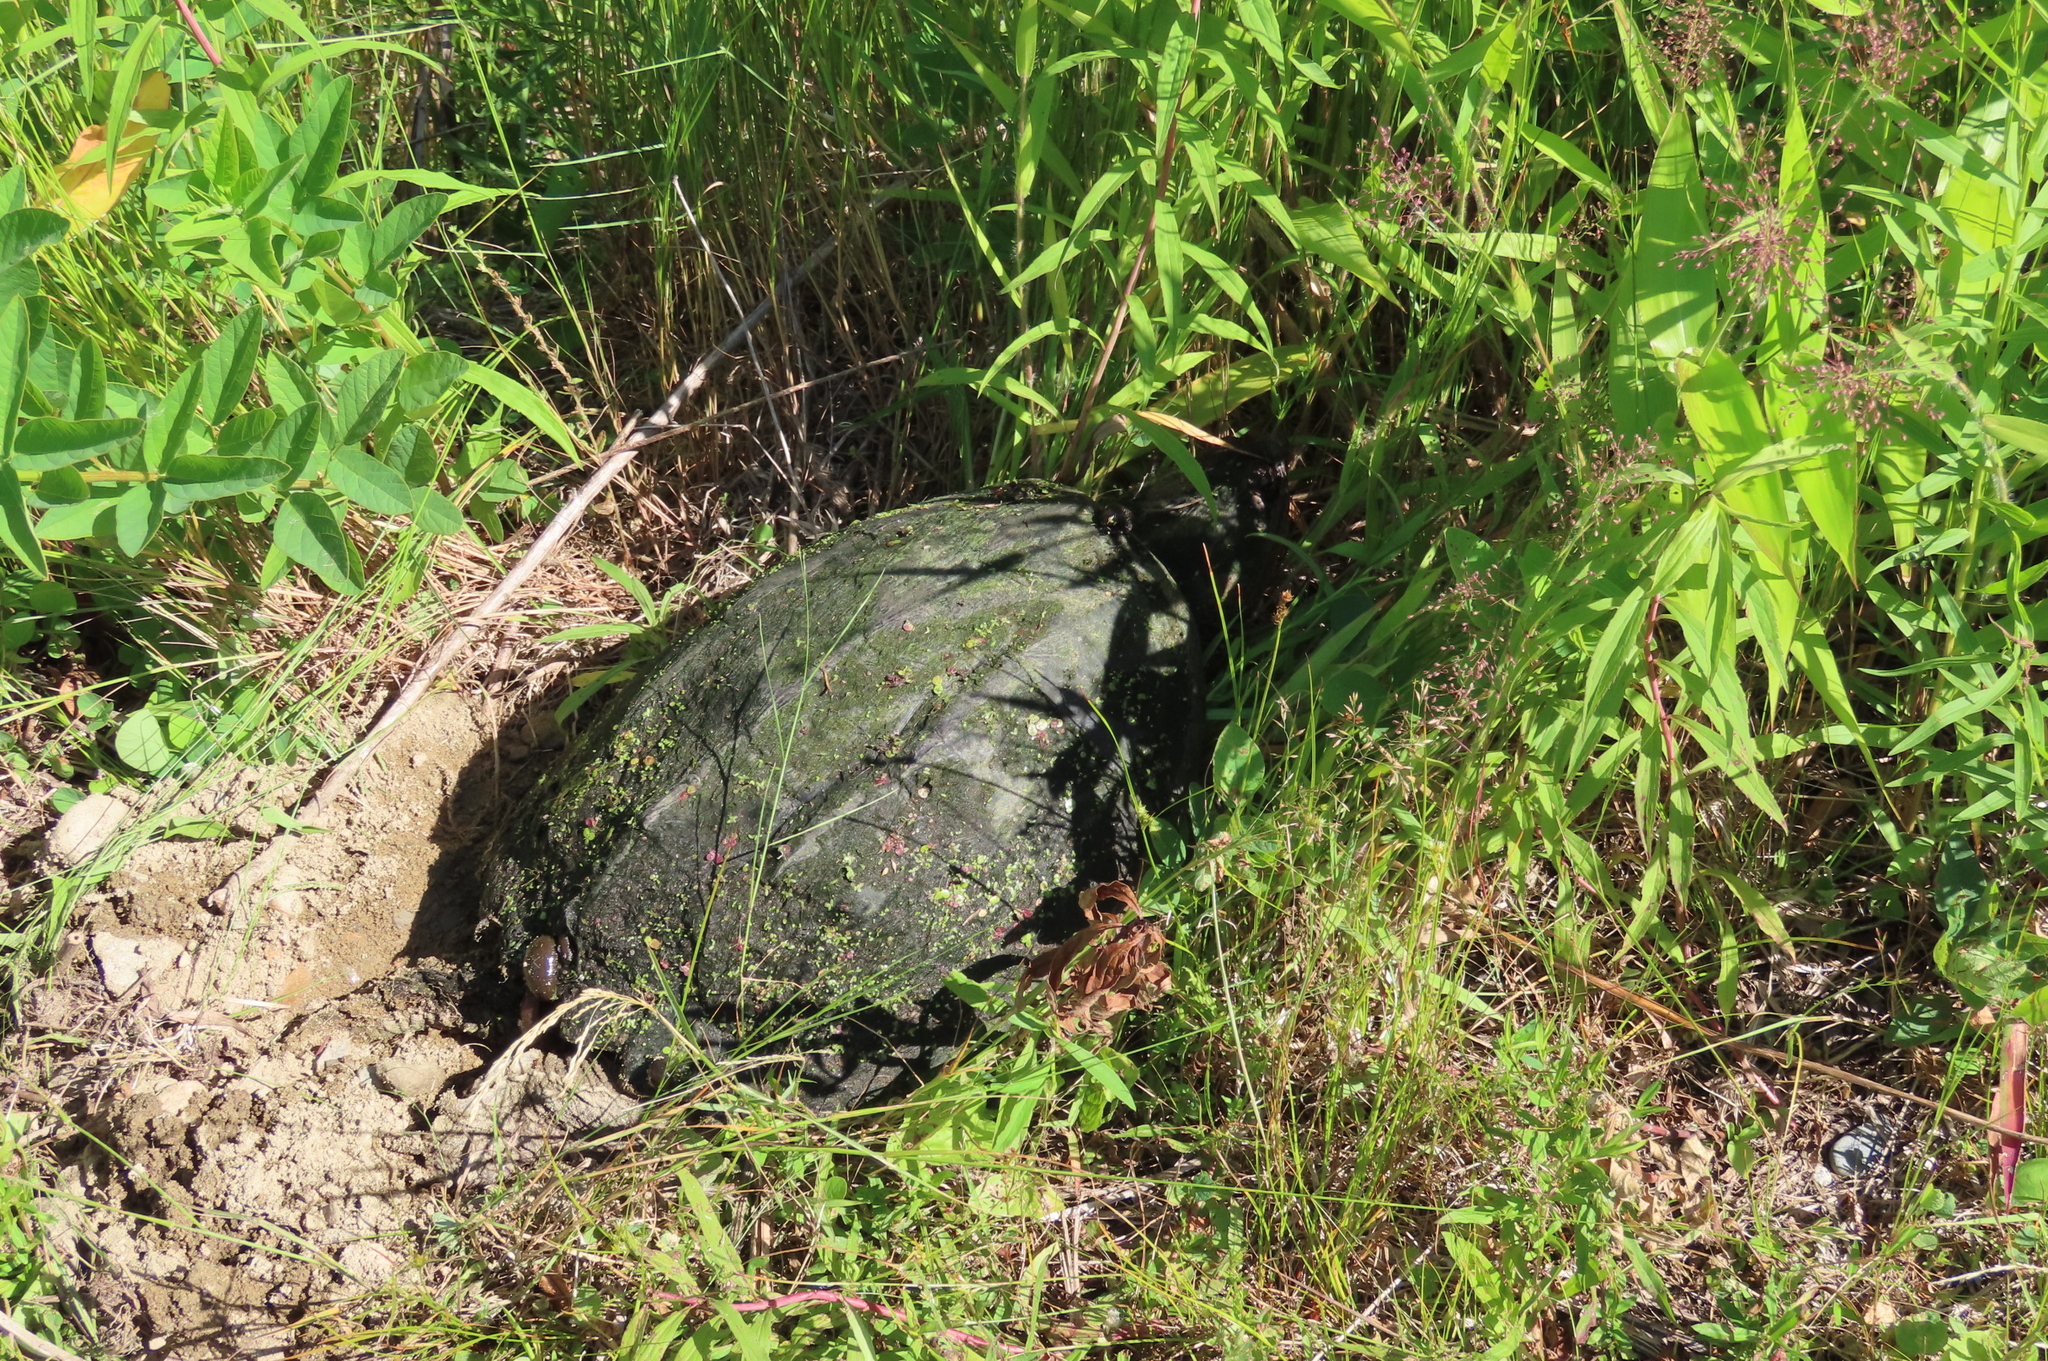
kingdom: Animalia
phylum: Chordata
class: Testudines
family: Chelydridae
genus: Chelydra
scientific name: Chelydra serpentina
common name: Common snapping turtle
